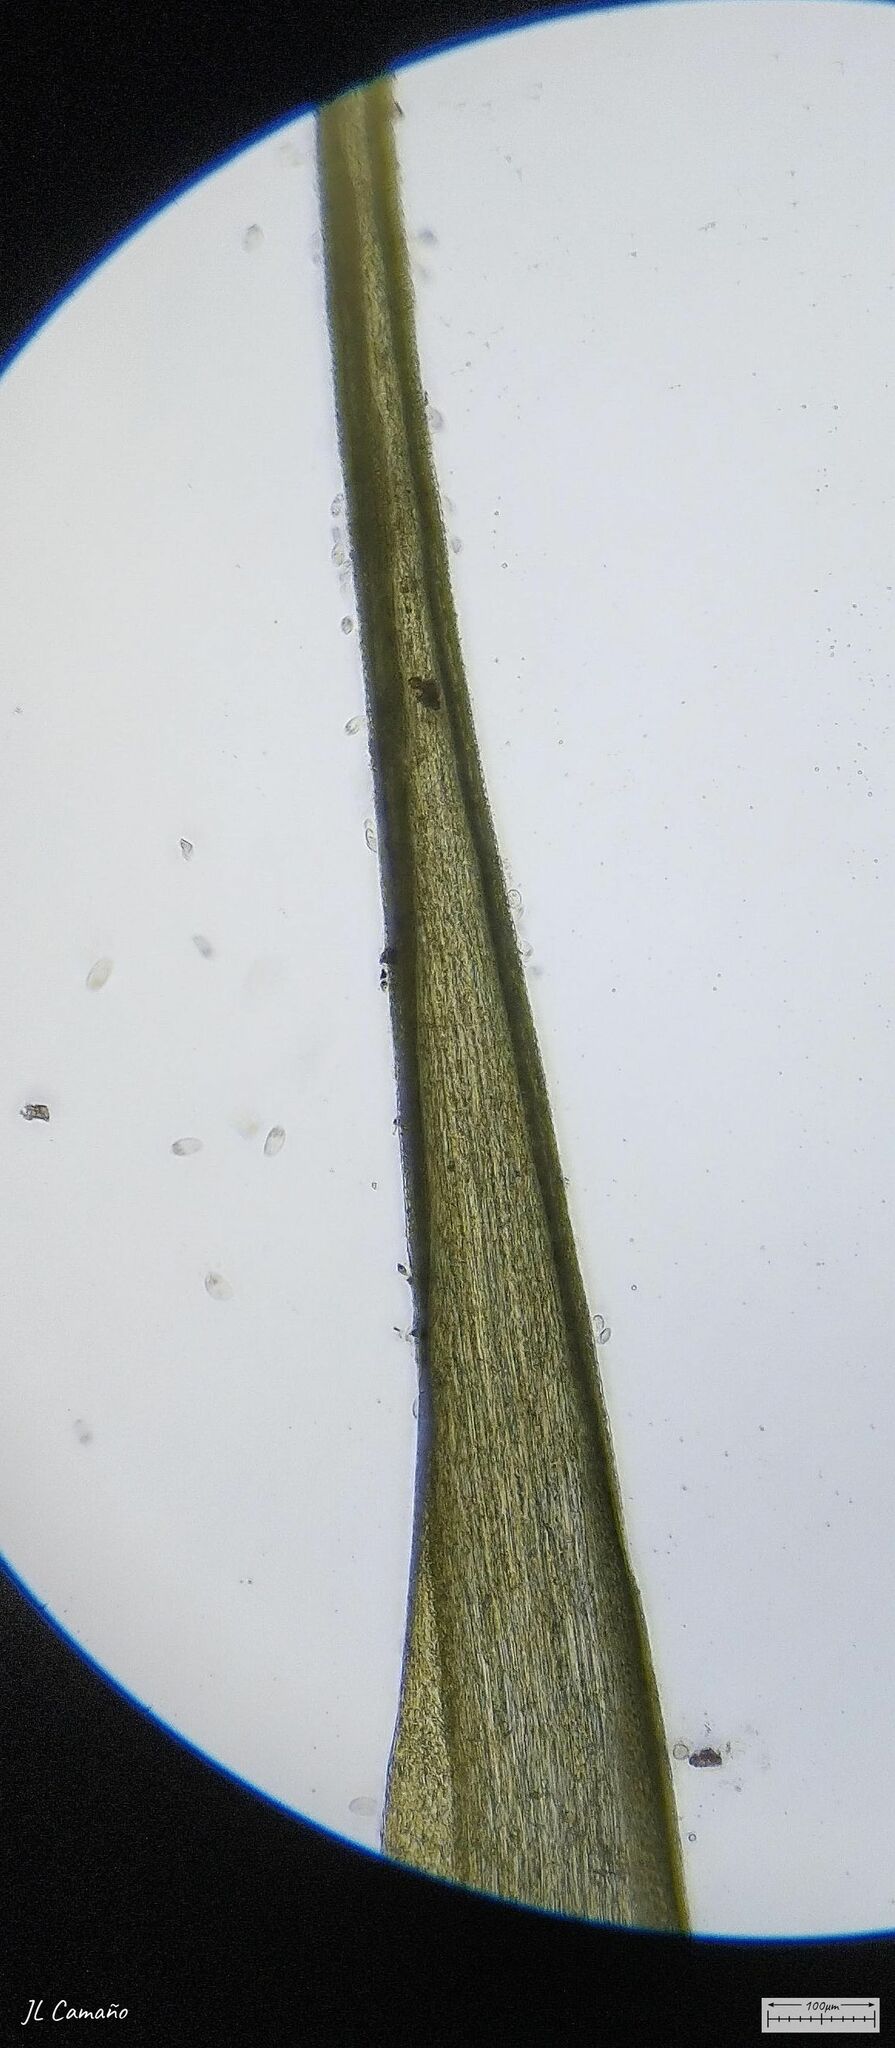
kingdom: Plantae
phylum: Bryophyta
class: Bryopsida
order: Dicranales
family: Leucobryaceae
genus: Campylopus
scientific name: Campylopus introflexus
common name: Heath star moss
